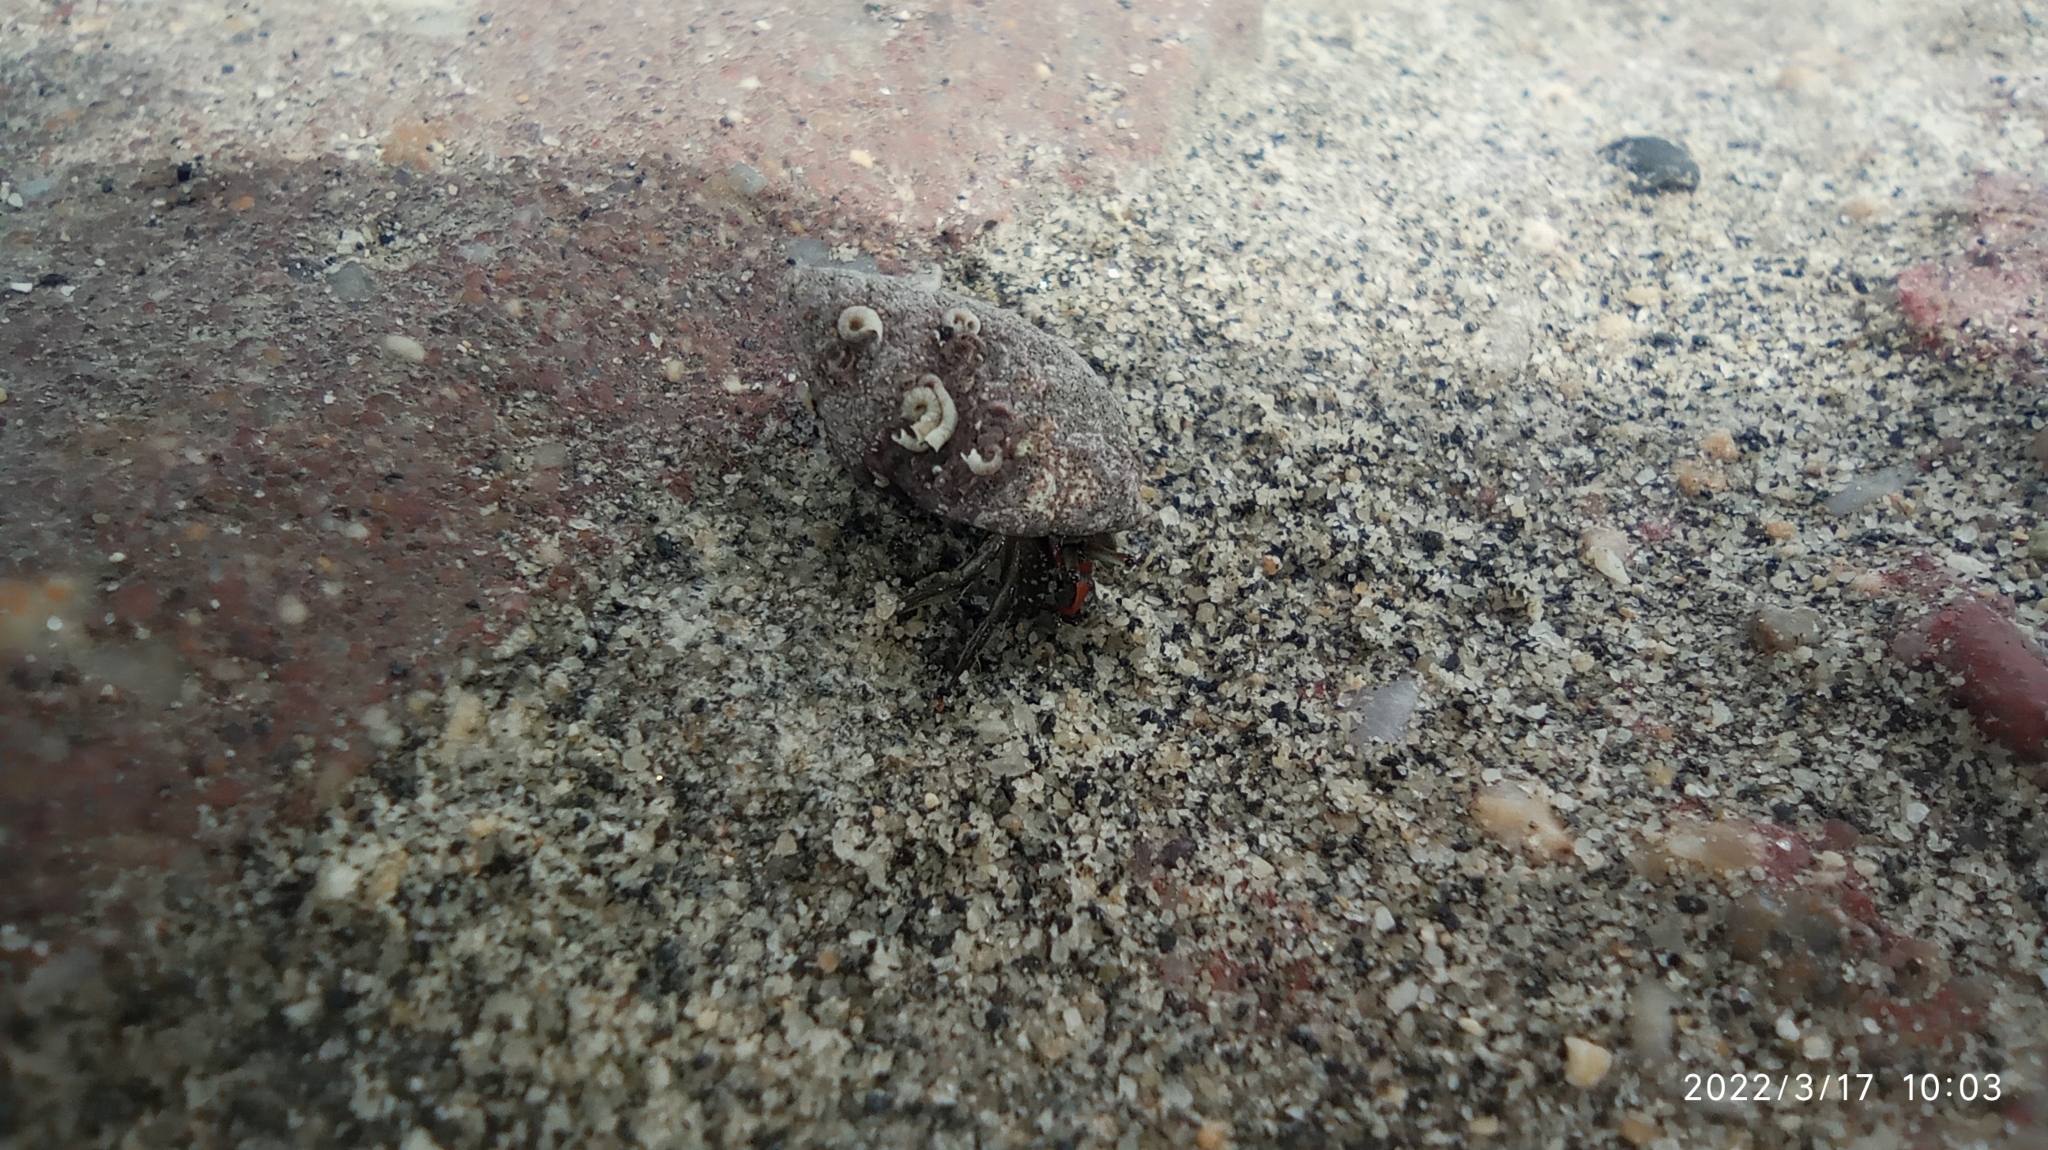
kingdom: Animalia
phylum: Arthropoda
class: Malacostraca
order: Decapoda
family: Diogenidae
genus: Clibanarius
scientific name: Clibanarius brasiliensis
